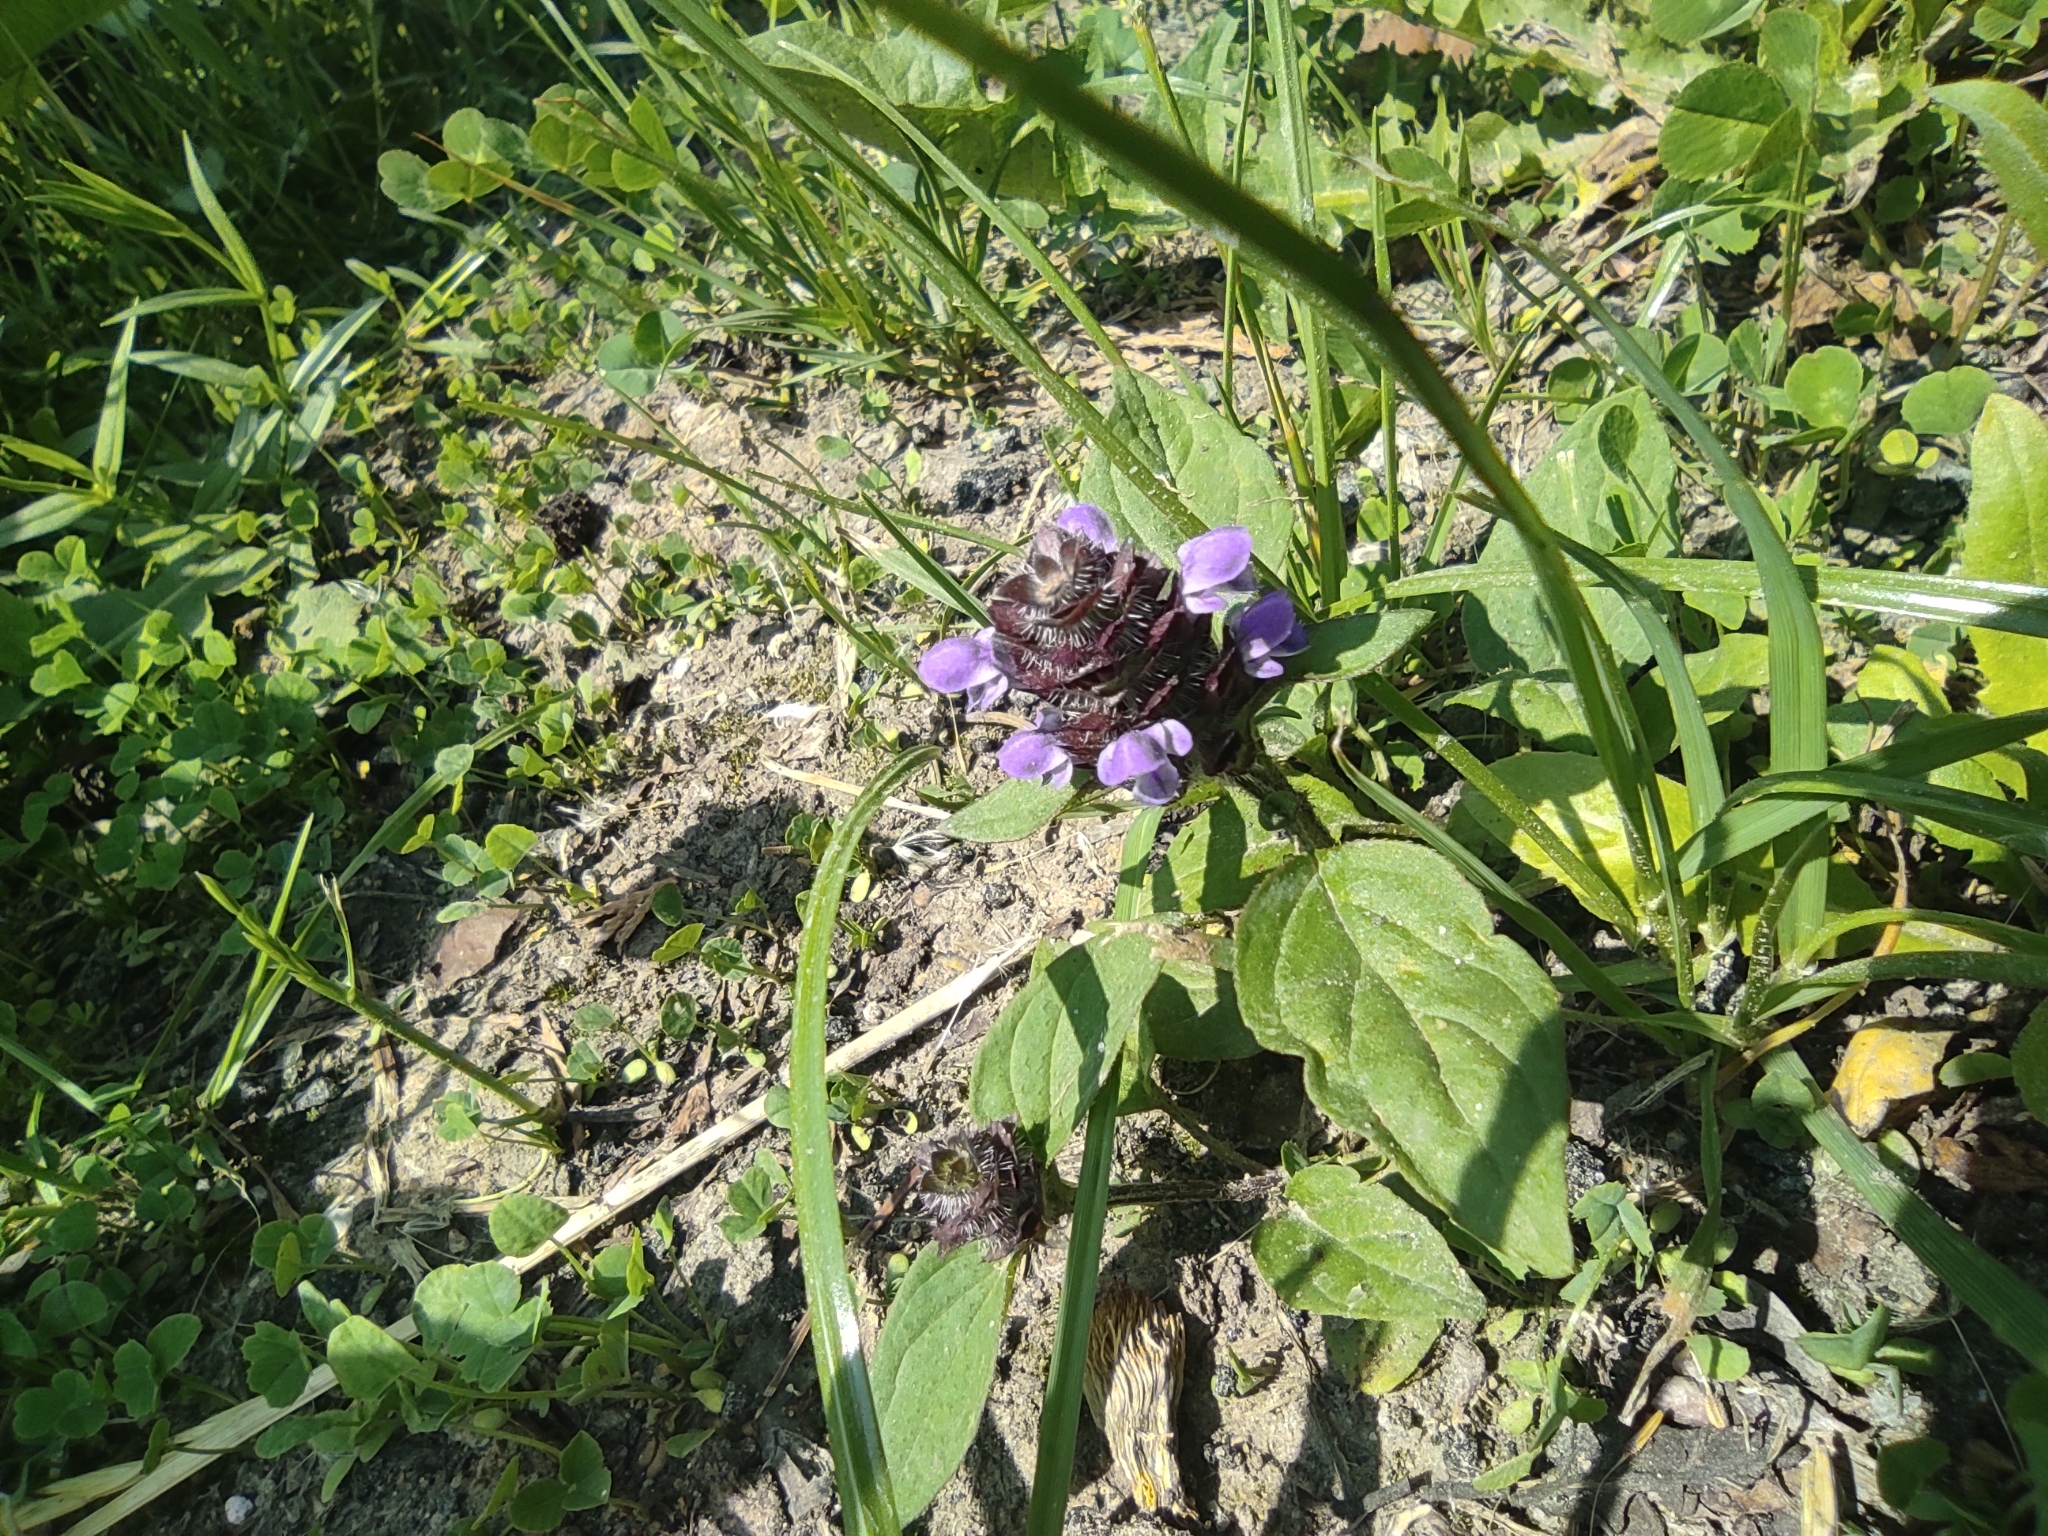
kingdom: Plantae
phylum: Tracheophyta
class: Magnoliopsida
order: Lamiales
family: Lamiaceae
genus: Prunella
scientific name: Prunella vulgaris
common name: Heal-all
